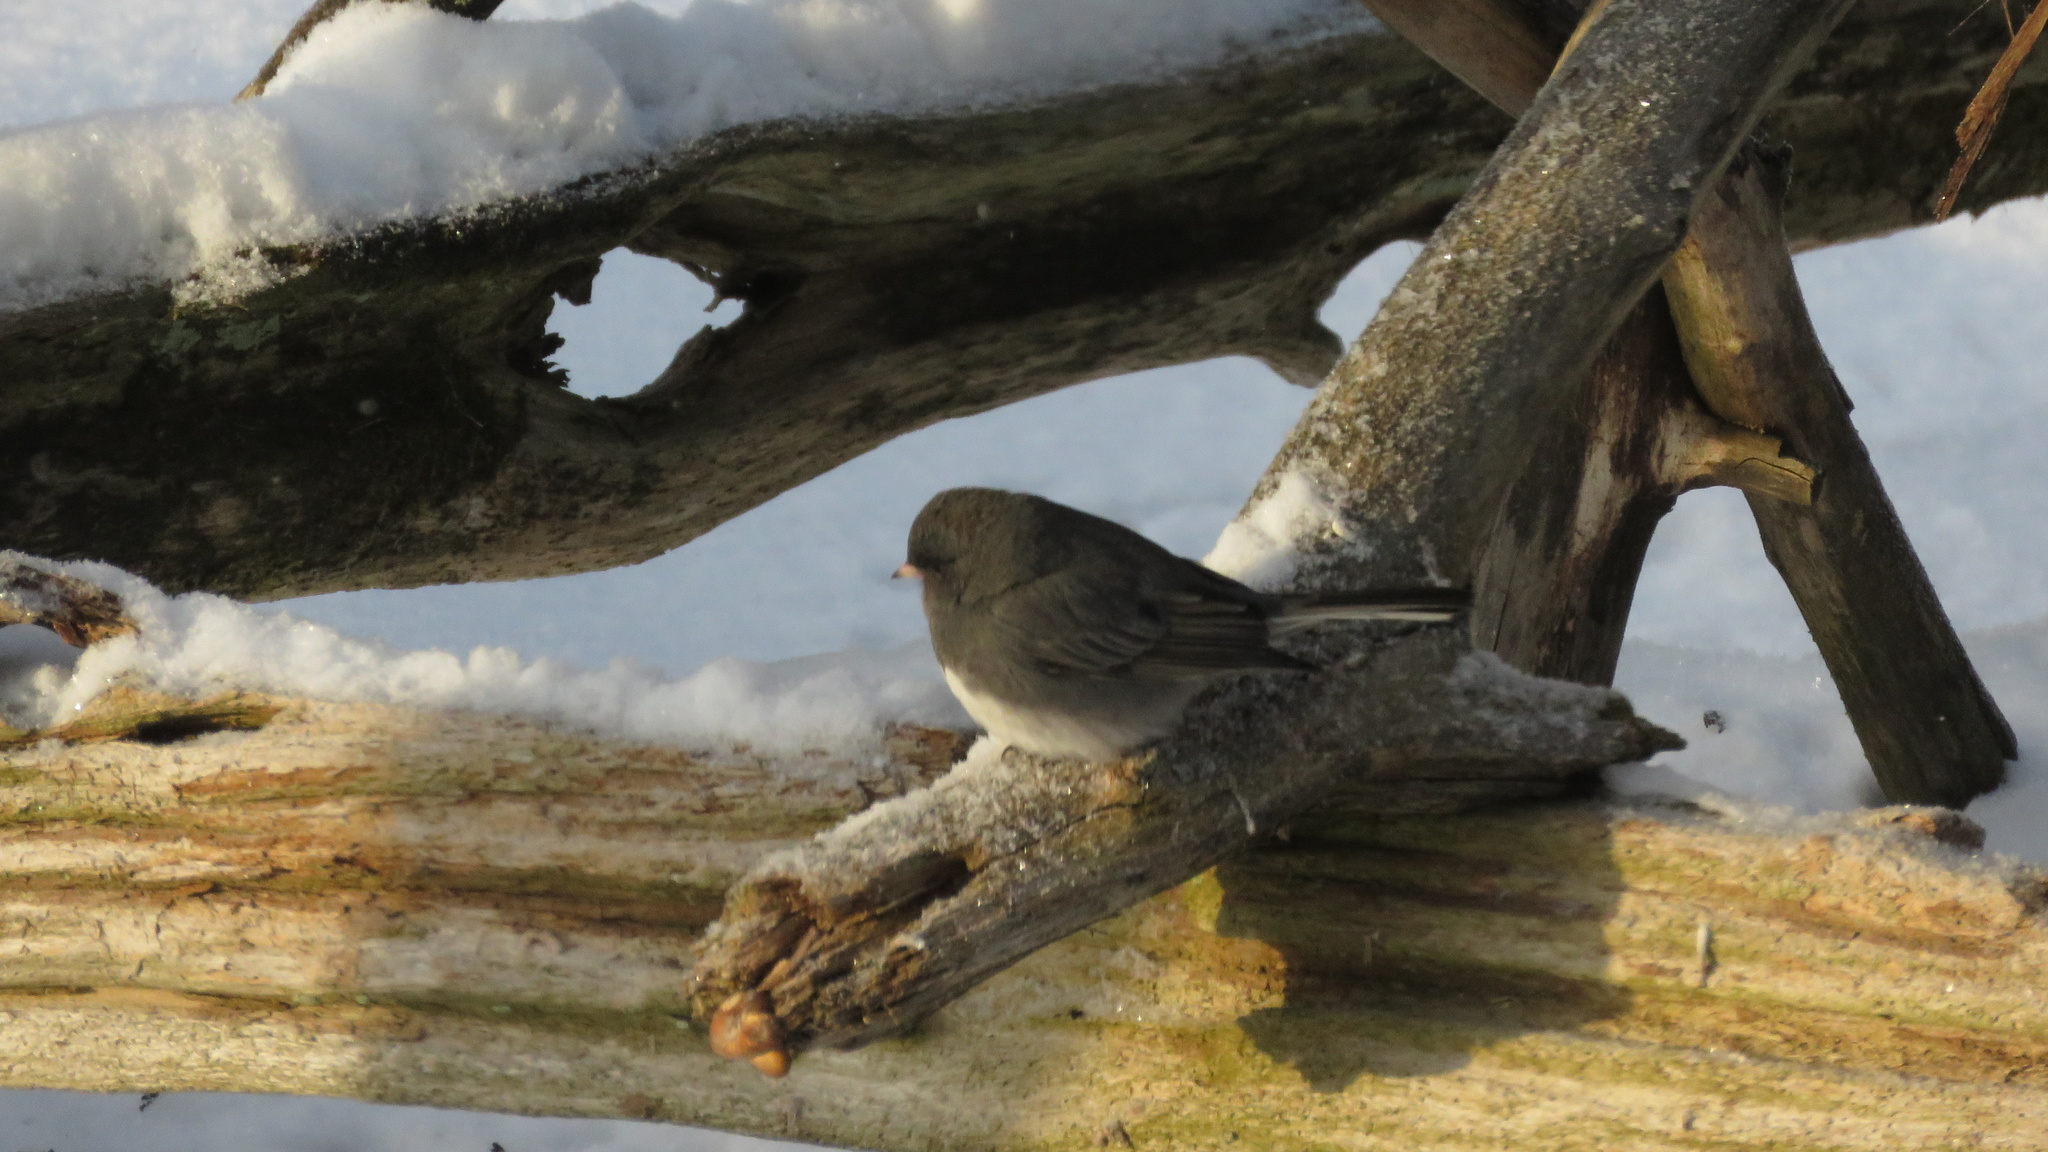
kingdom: Animalia
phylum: Chordata
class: Aves
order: Passeriformes
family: Passerellidae
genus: Junco
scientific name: Junco hyemalis
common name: Dark-eyed junco
